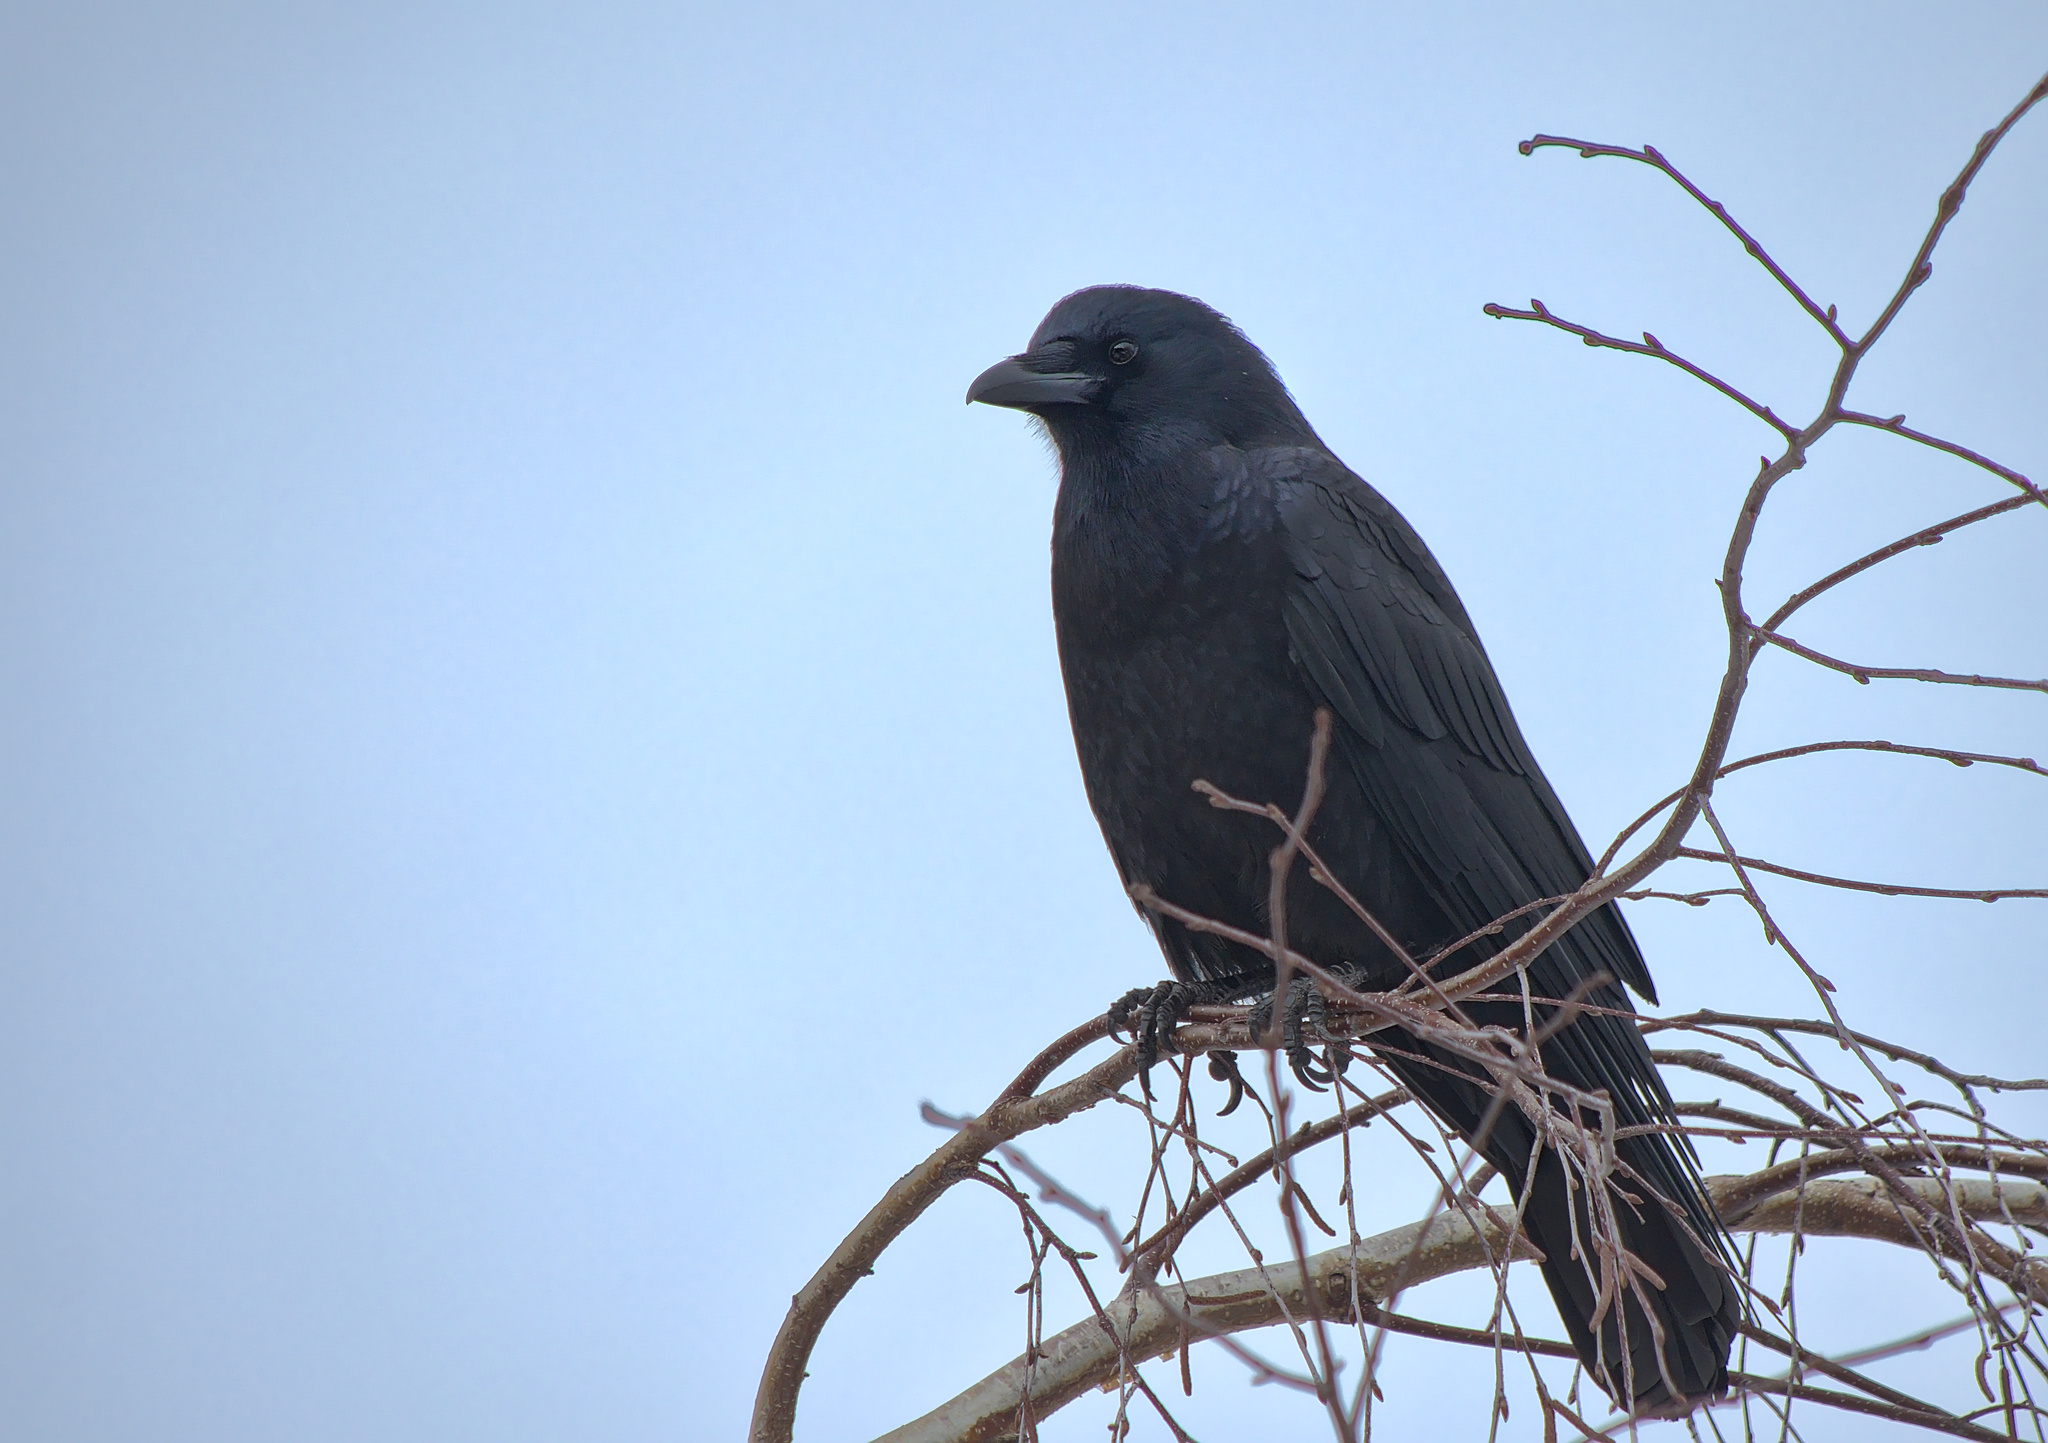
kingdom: Animalia
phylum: Chordata
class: Aves
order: Passeriformes
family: Corvidae
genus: Corvus
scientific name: Corvus brachyrhynchos
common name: American crow
